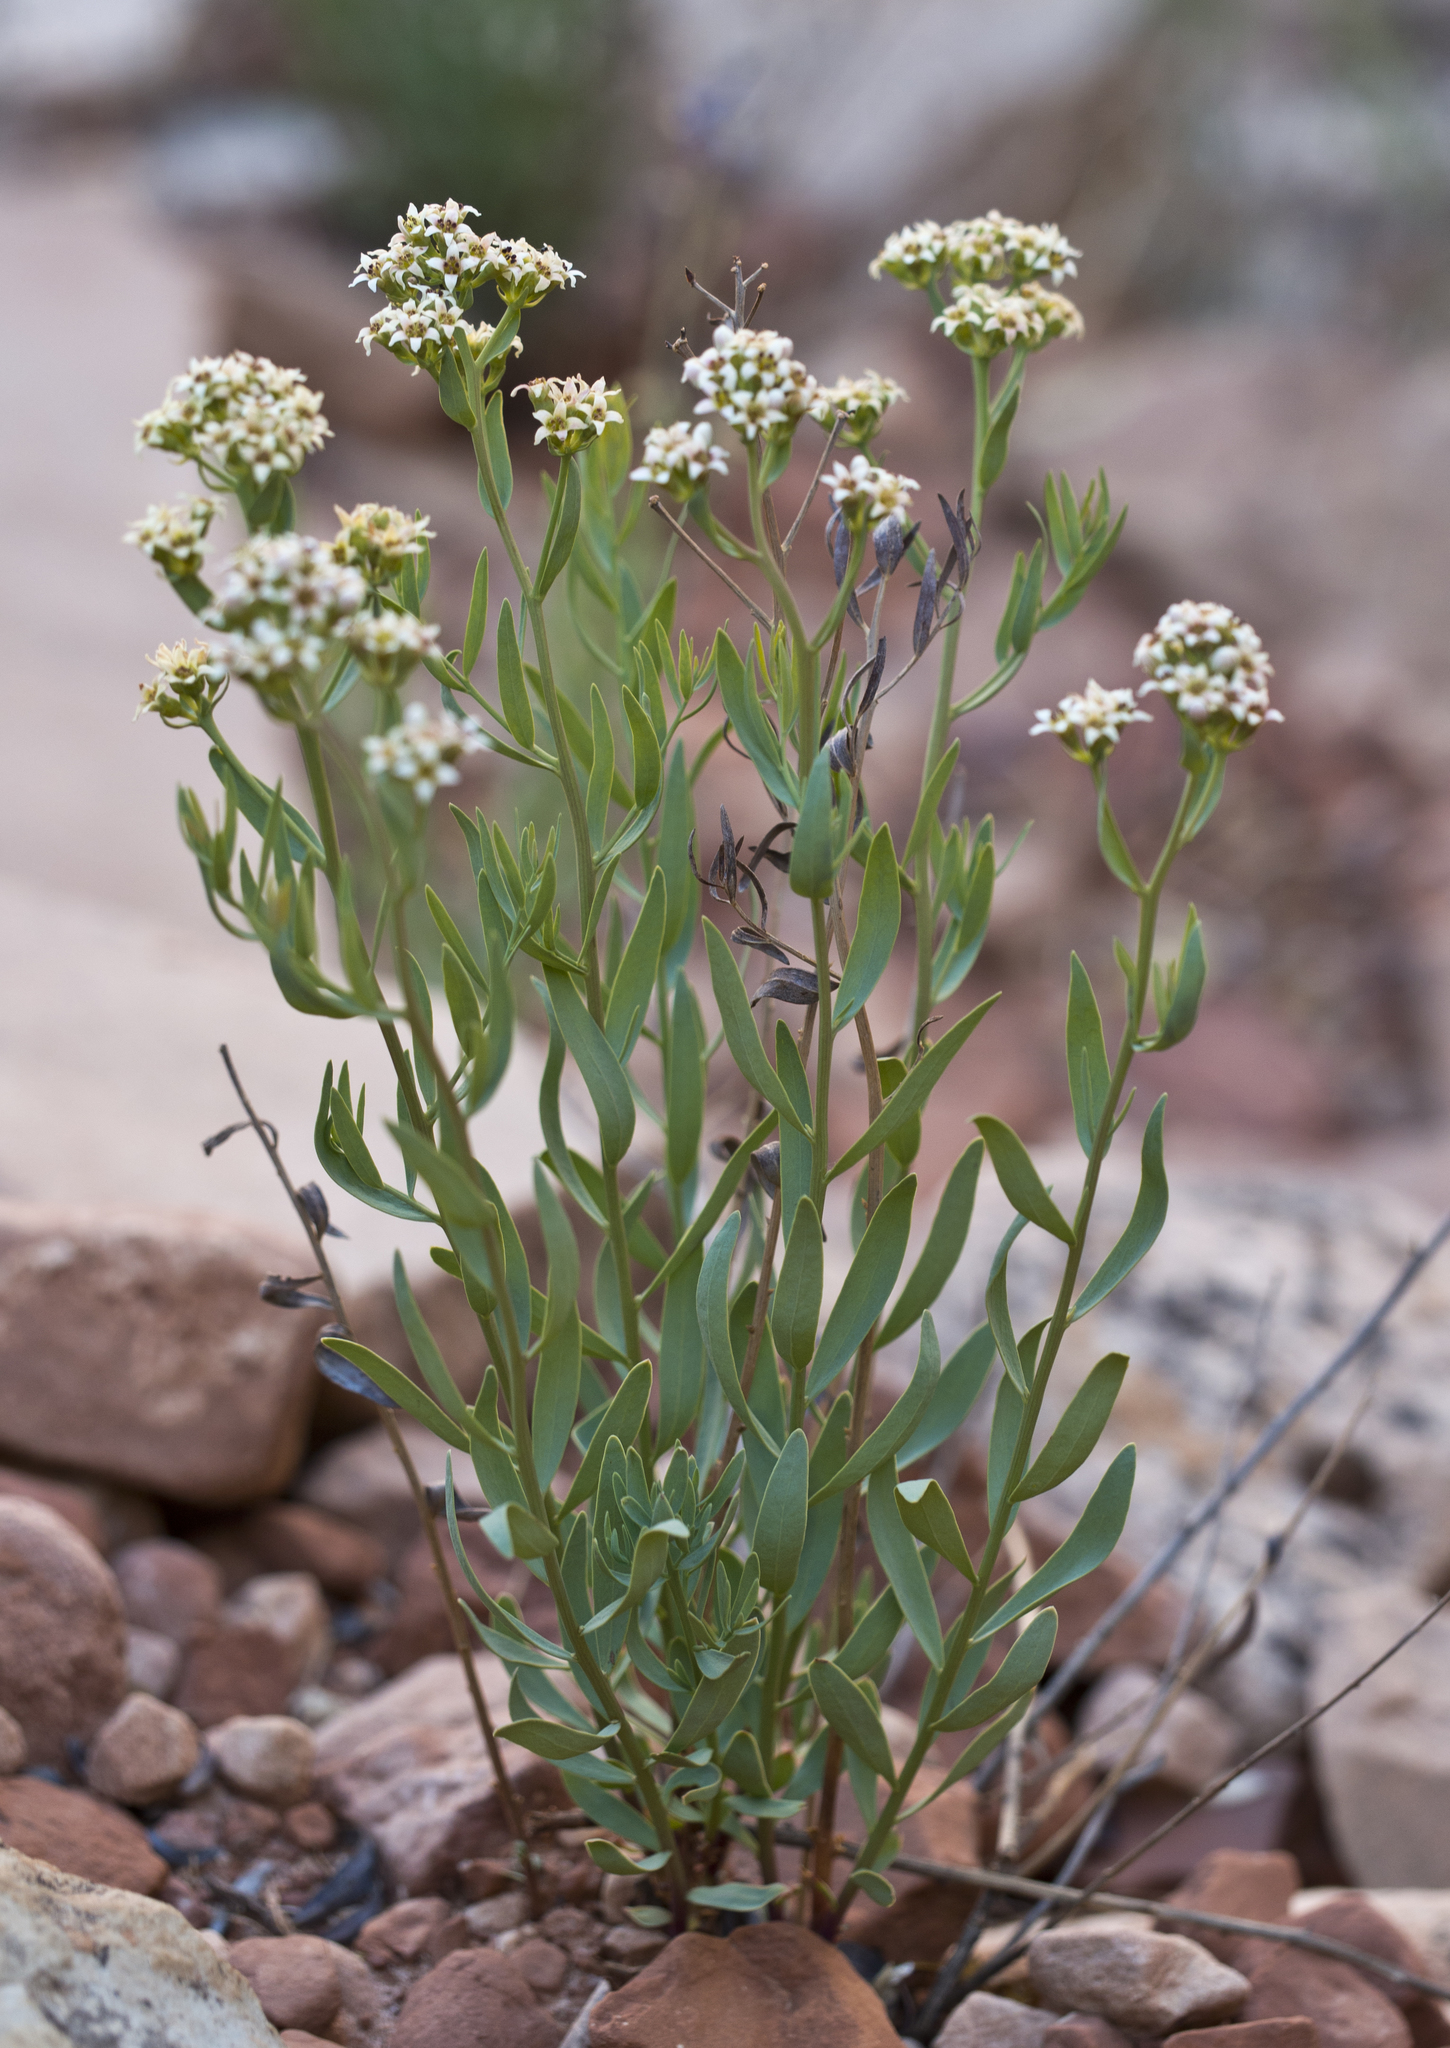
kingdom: Plantae
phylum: Tracheophyta
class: Magnoliopsida
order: Santalales
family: Comandraceae
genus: Comandra
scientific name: Comandra umbellata
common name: Bastard toadflax
